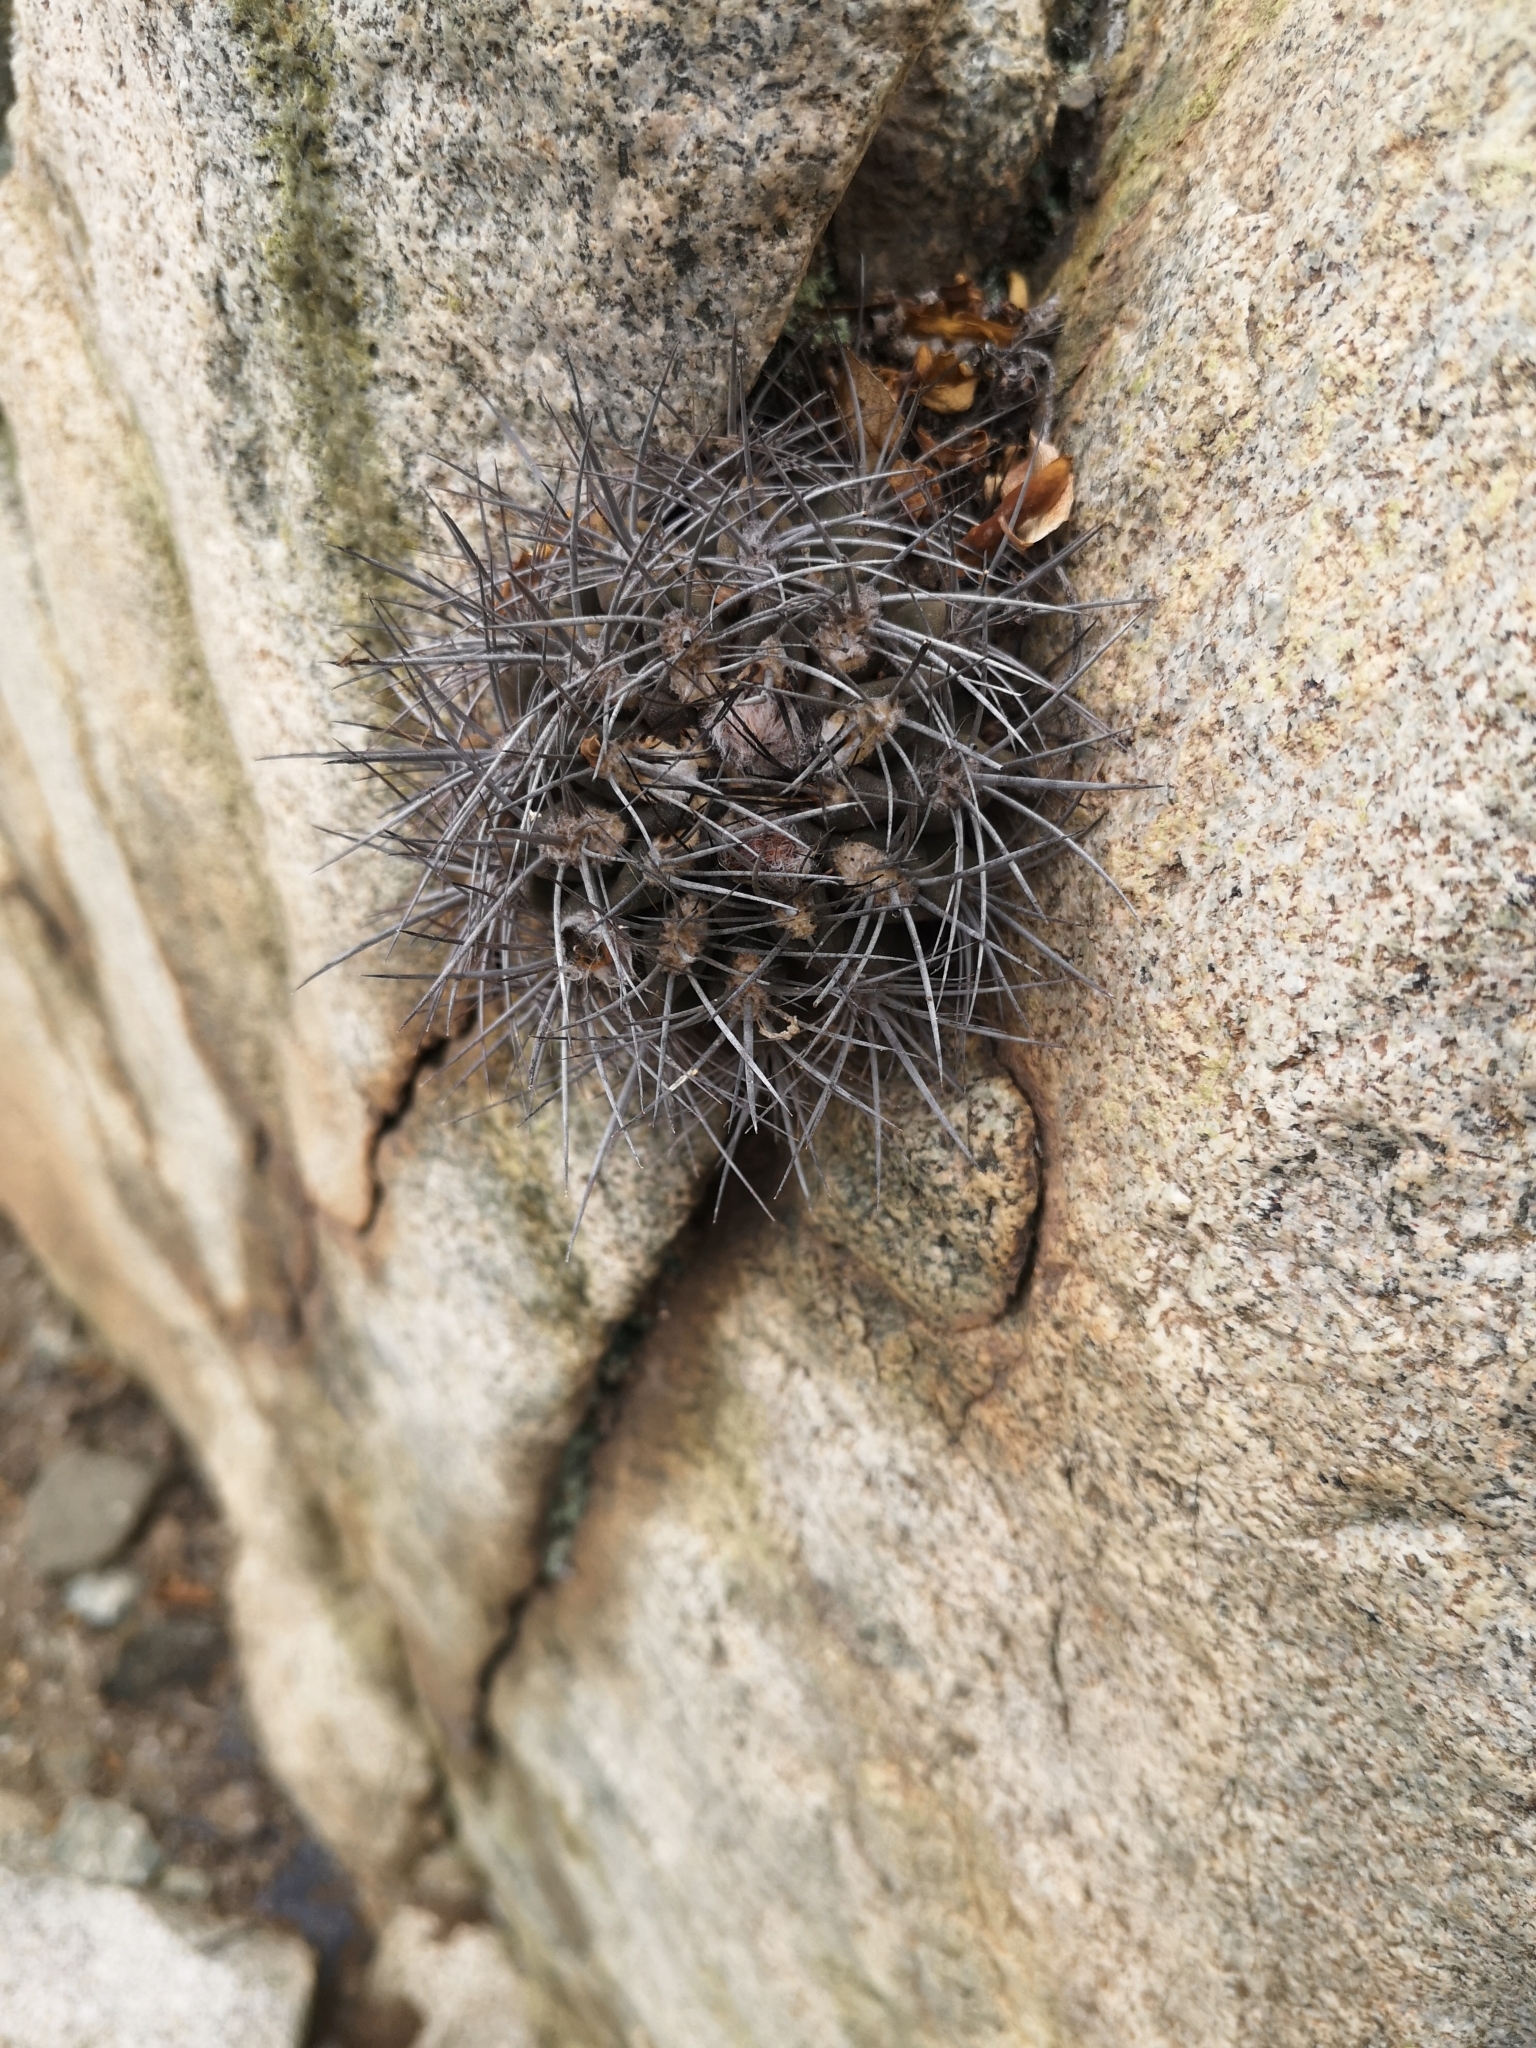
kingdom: Plantae
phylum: Tracheophyta
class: Magnoliopsida
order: Caryophyllales
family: Cactaceae
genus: Eriosyce
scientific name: Eriosyce paucicostata
